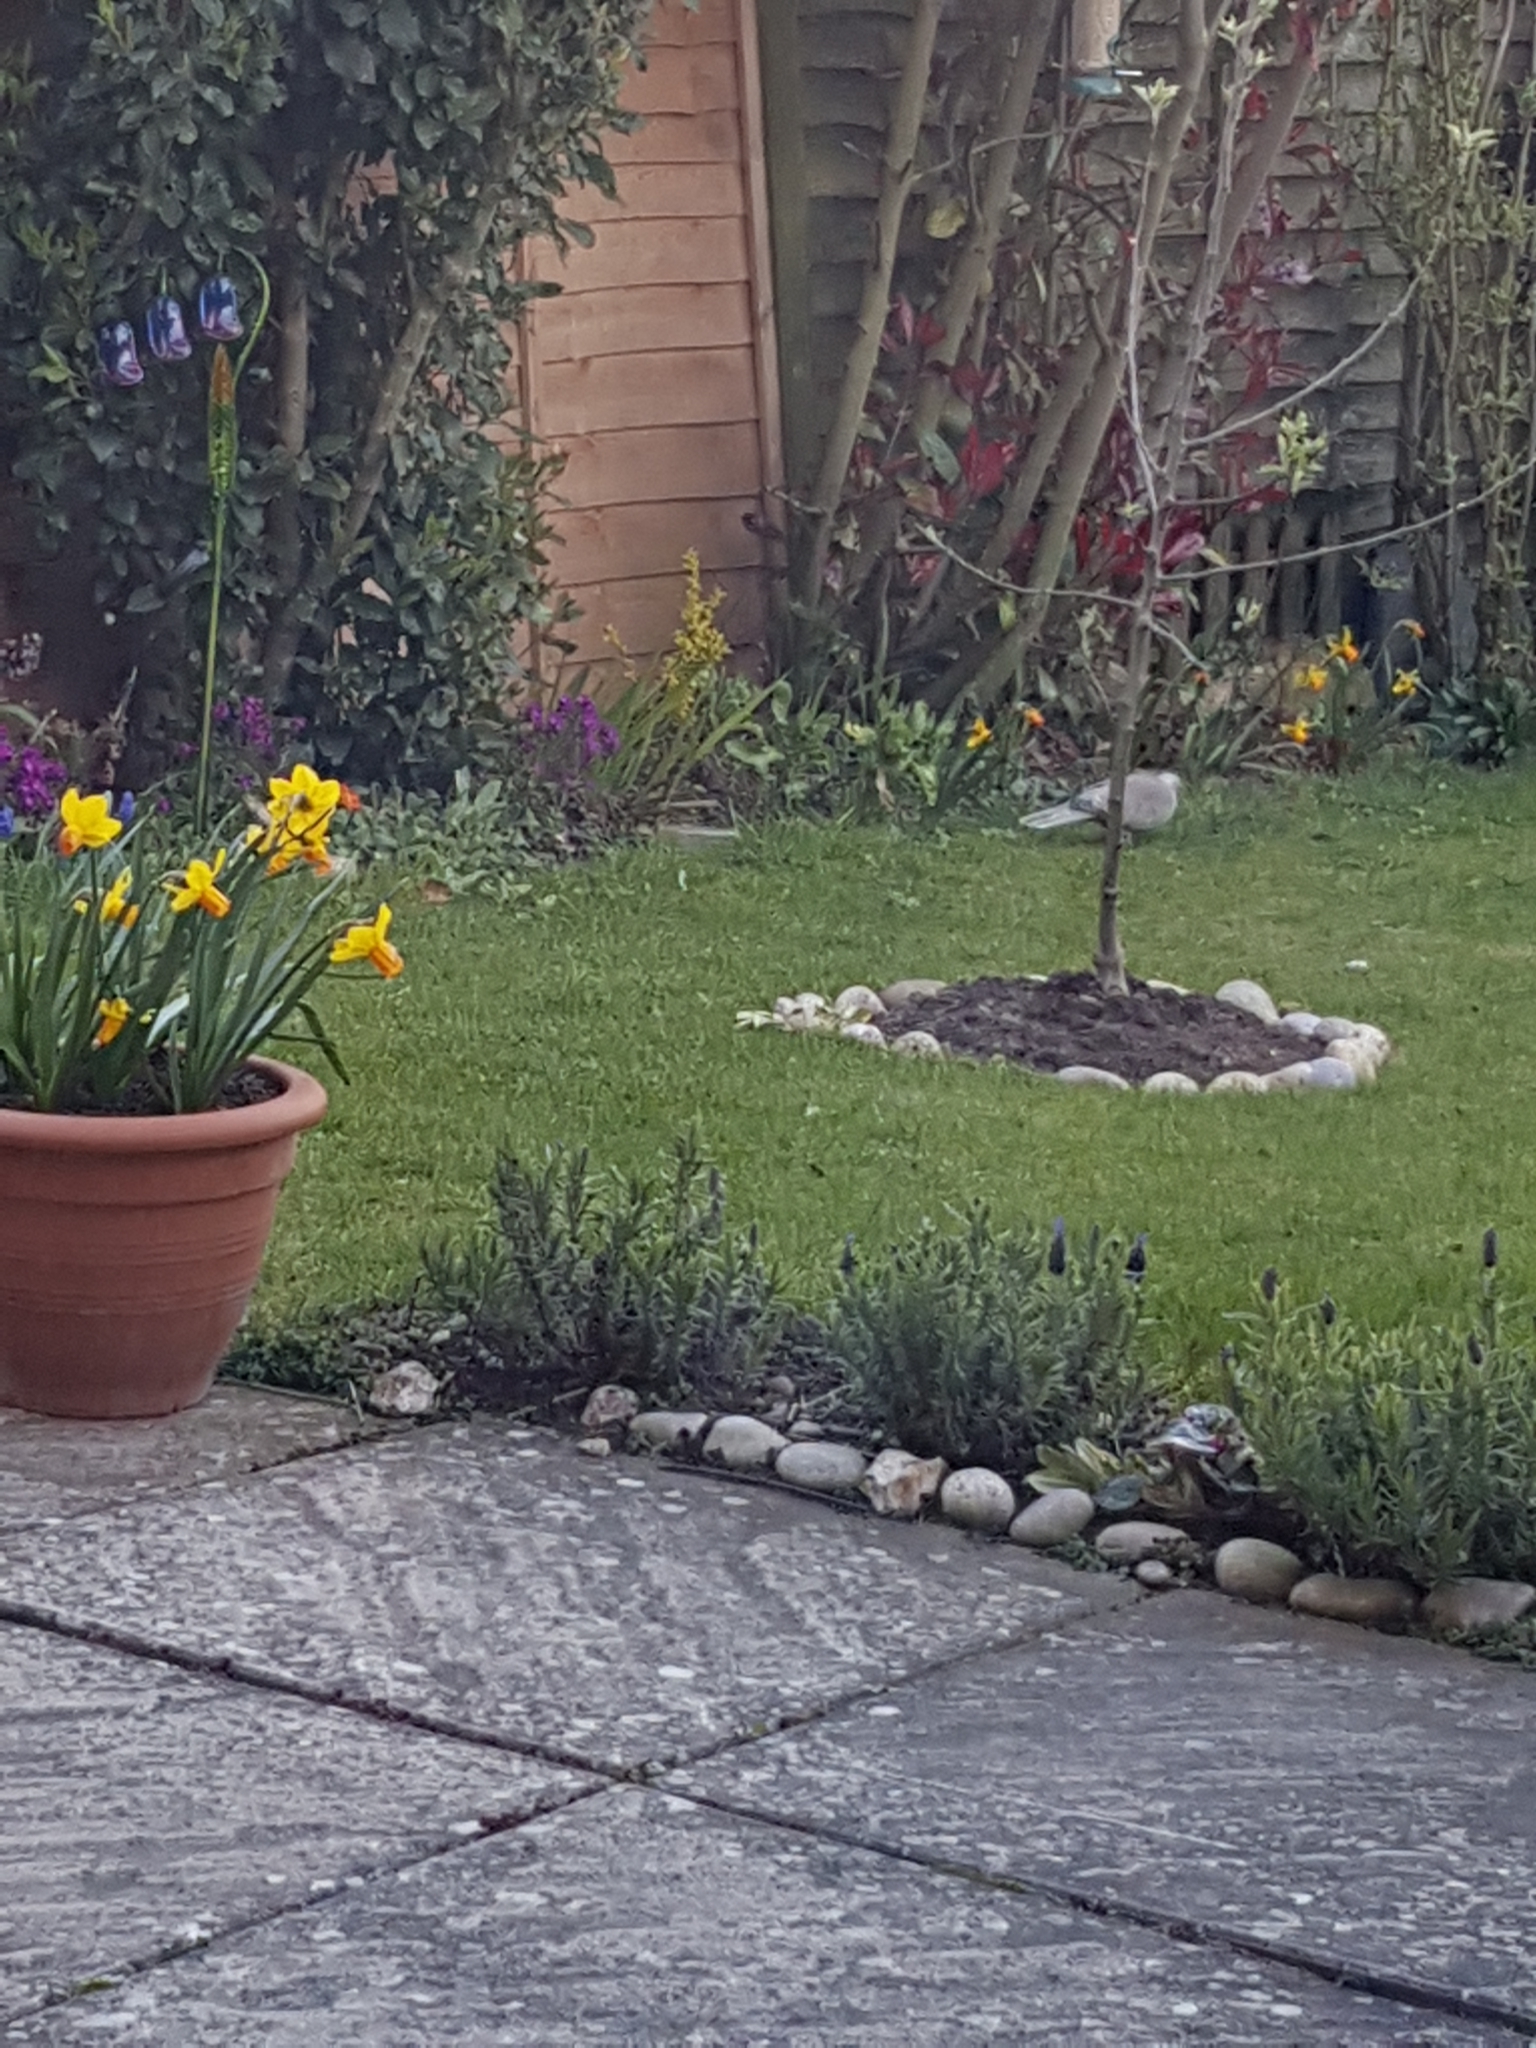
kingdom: Animalia
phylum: Chordata
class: Aves
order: Columbiformes
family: Columbidae
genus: Streptopelia
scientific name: Streptopelia decaocto
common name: Eurasian collared dove
